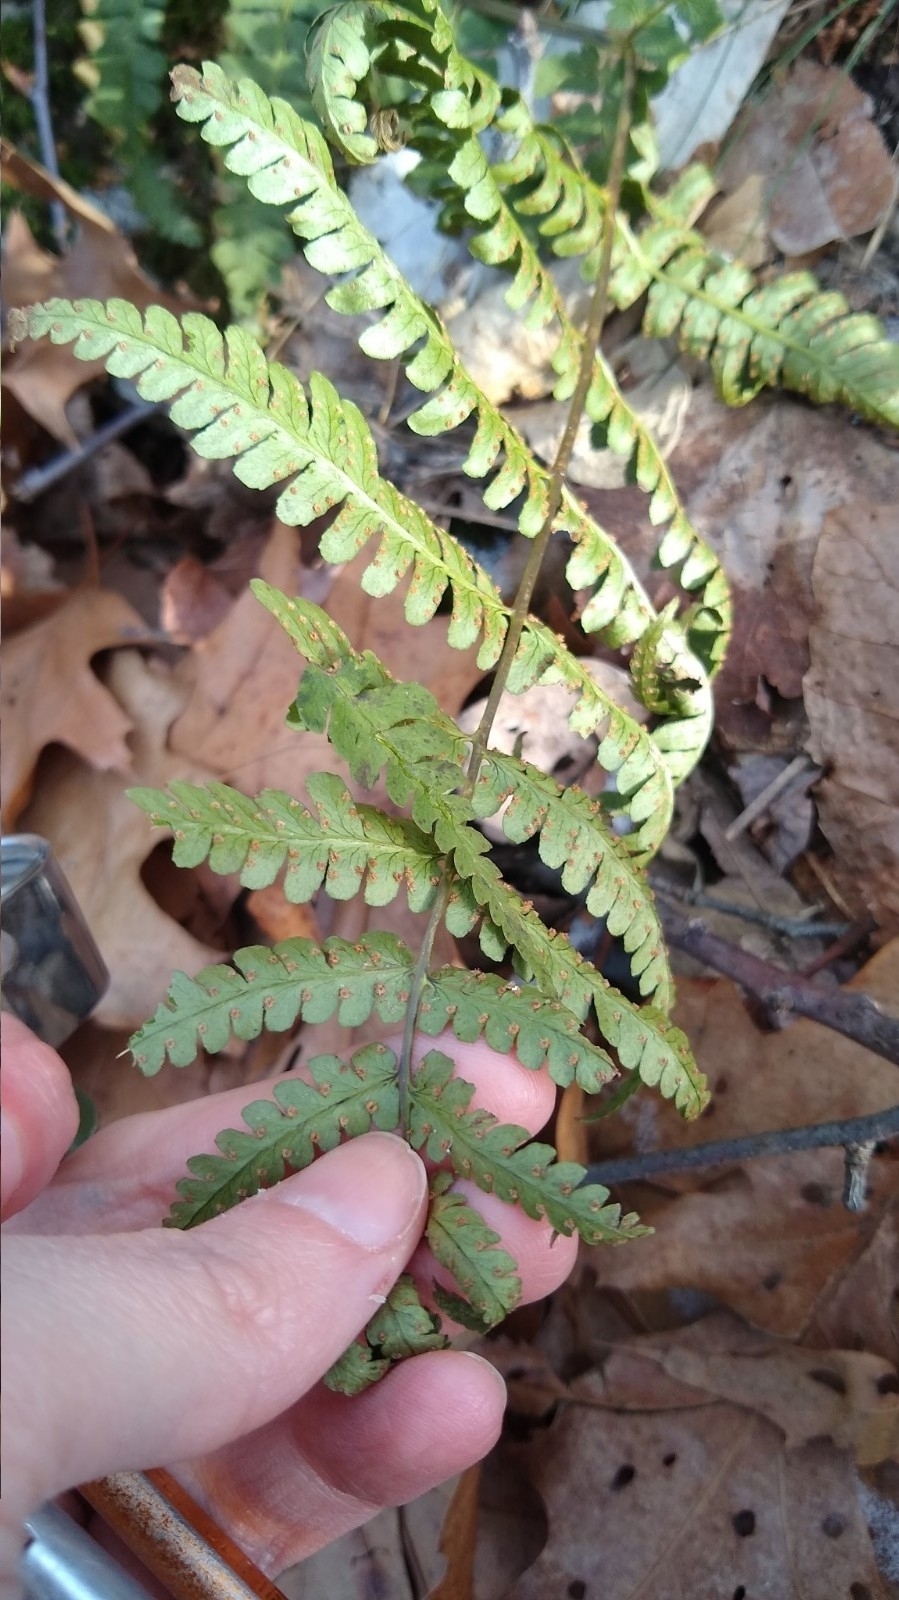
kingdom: Plantae
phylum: Tracheophyta
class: Polypodiopsida
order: Polypodiales
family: Dryopteridaceae
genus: Dryopteris
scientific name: Dryopteris marginalis
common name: Marginal wood fern
